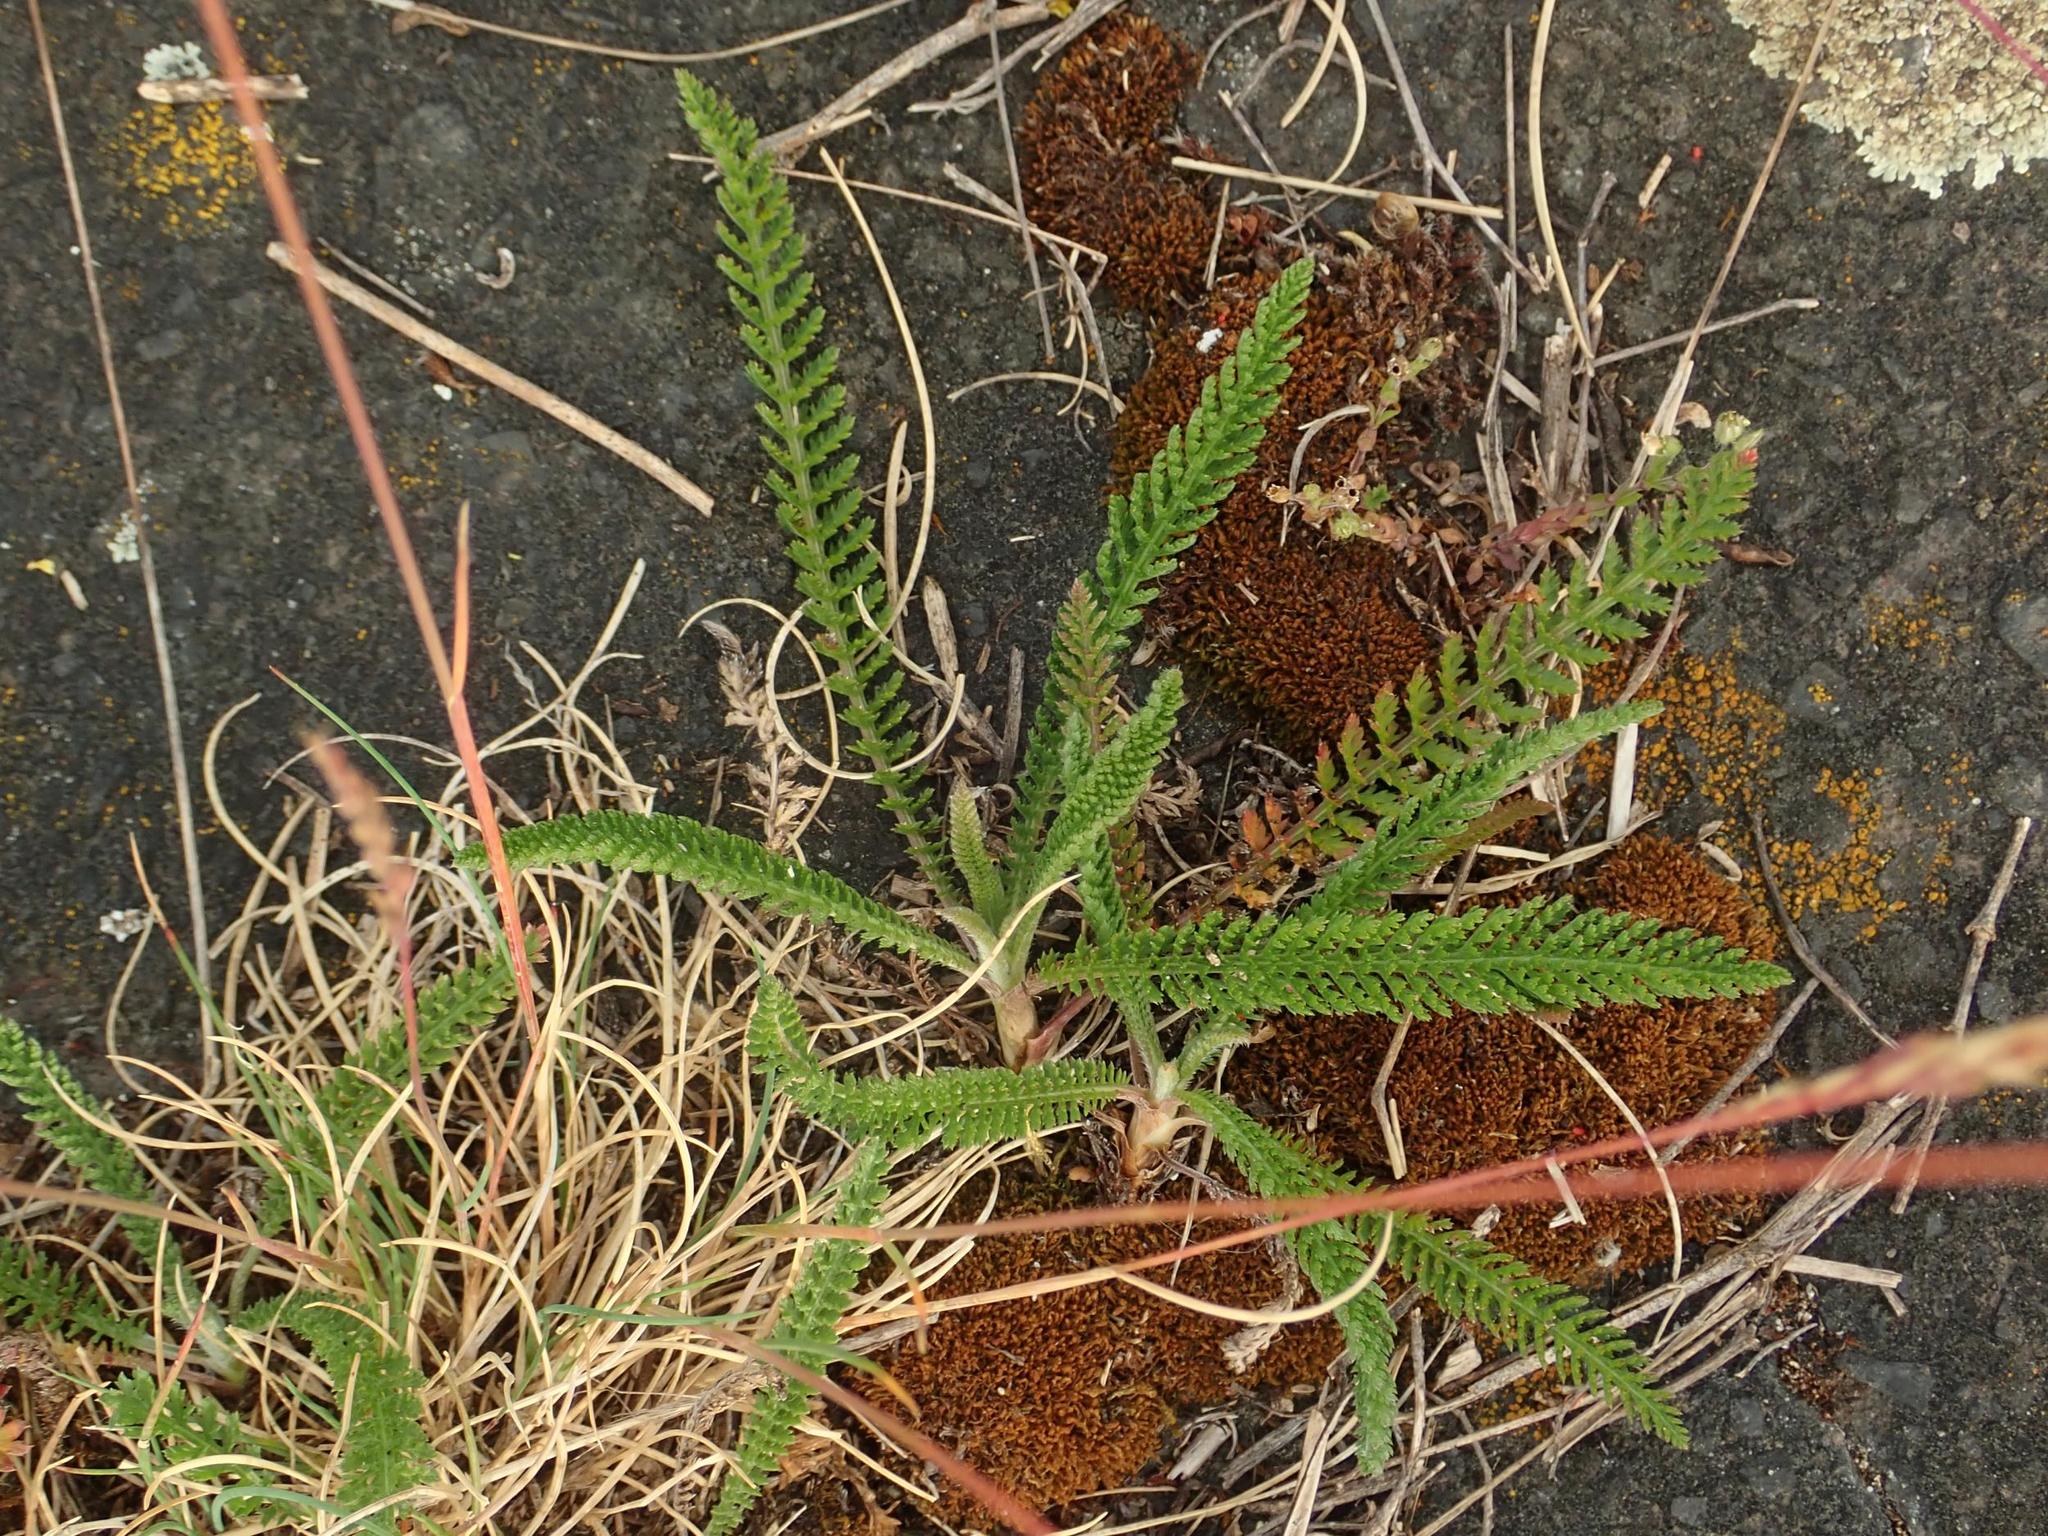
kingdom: Plantae
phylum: Tracheophyta
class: Magnoliopsida
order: Asterales
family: Asteraceae
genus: Achillea
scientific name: Achillea millefolium
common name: Yarrow
